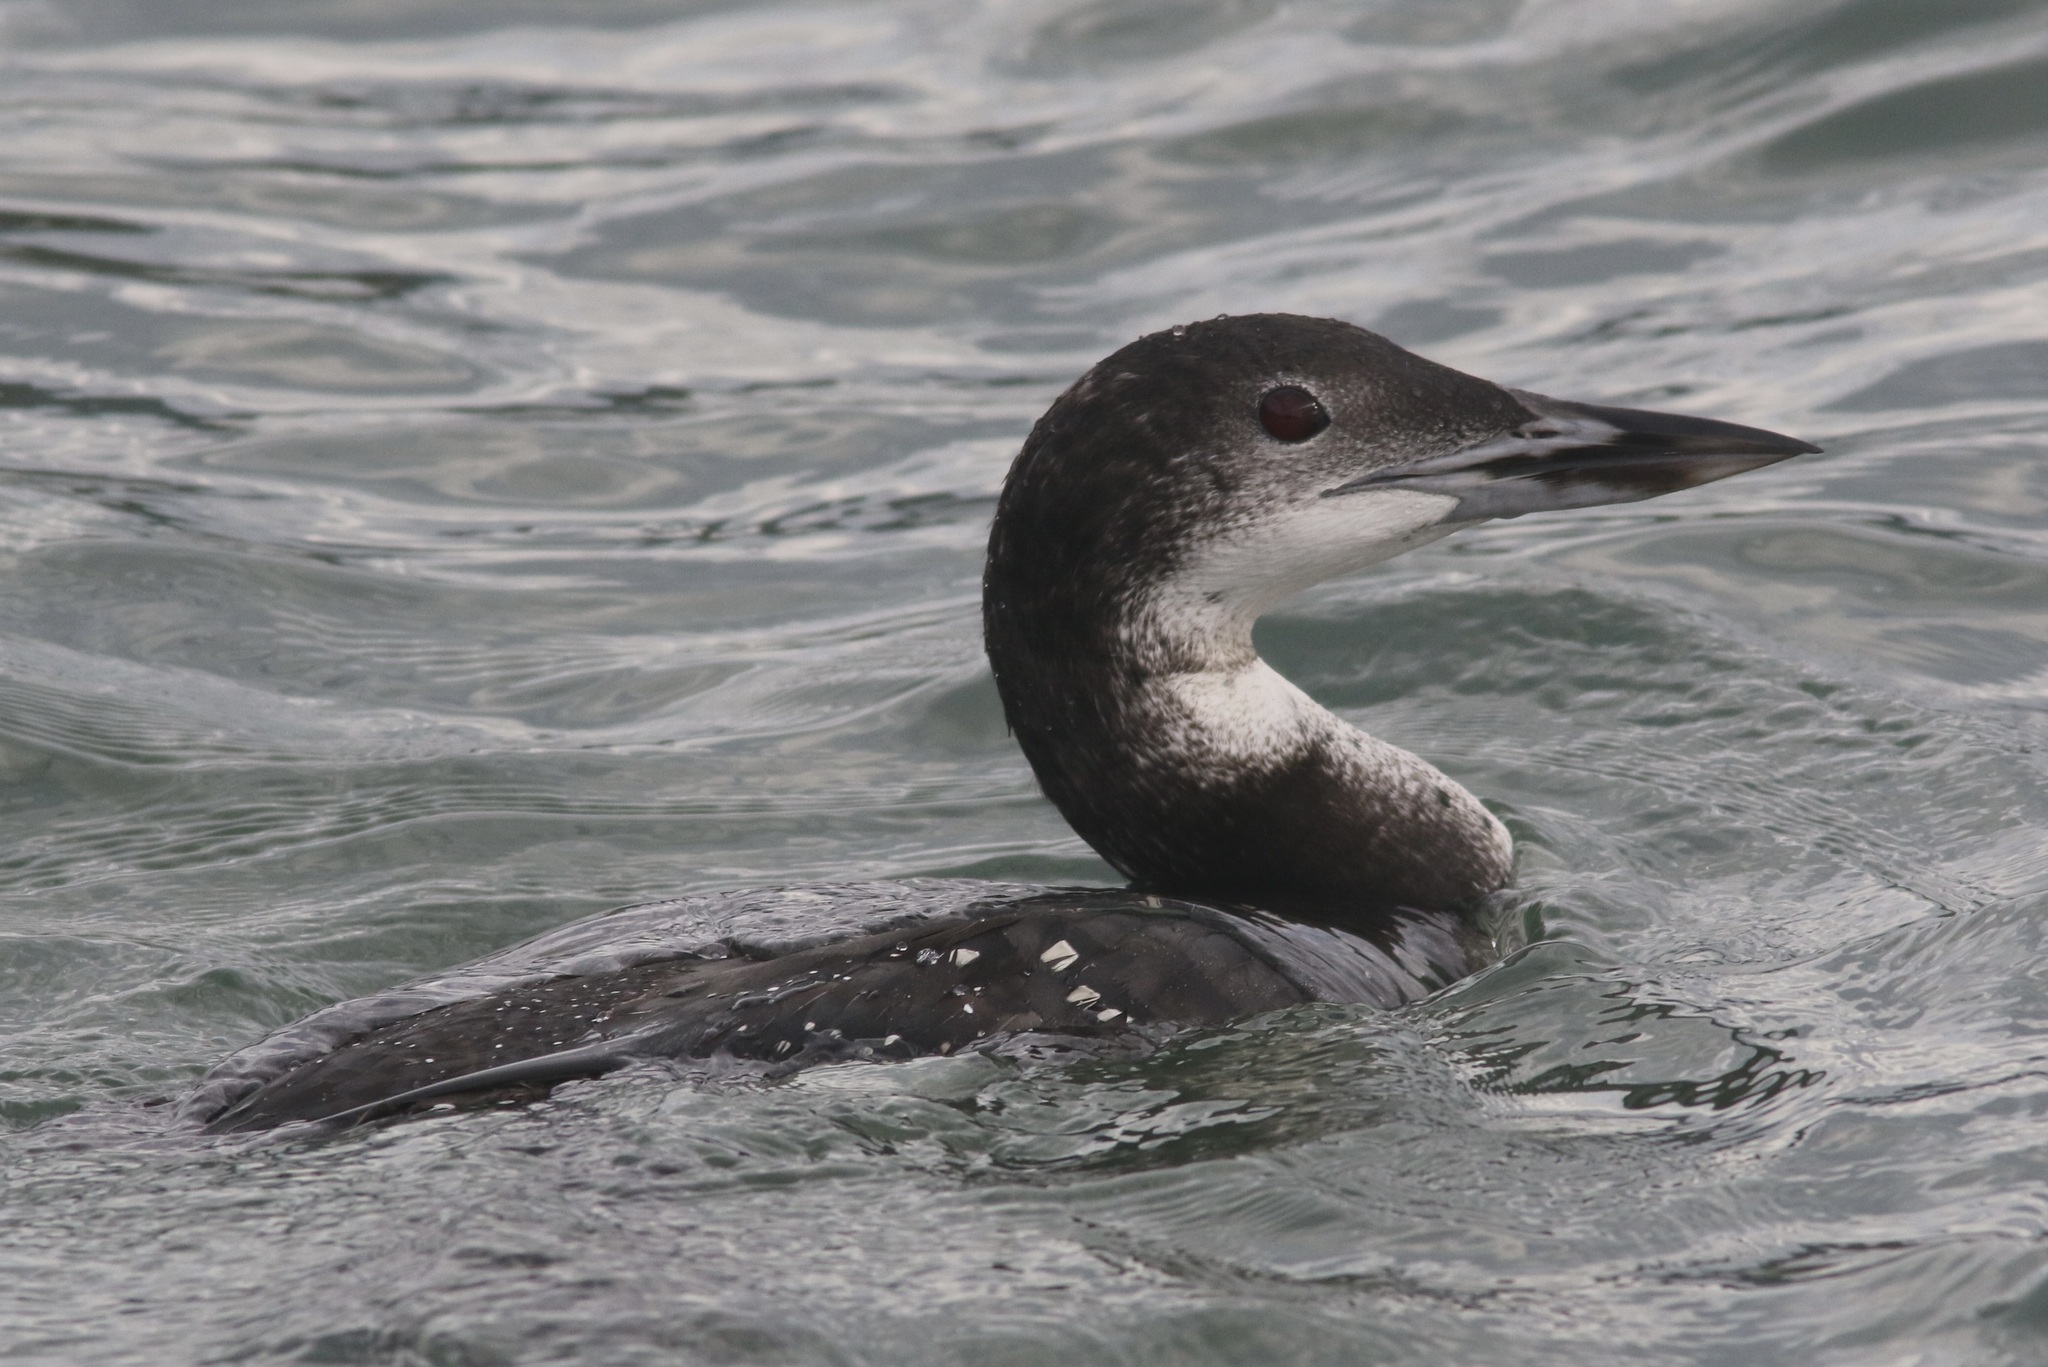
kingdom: Animalia
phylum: Chordata
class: Aves
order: Gaviiformes
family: Gaviidae
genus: Gavia
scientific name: Gavia immer
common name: Common loon
